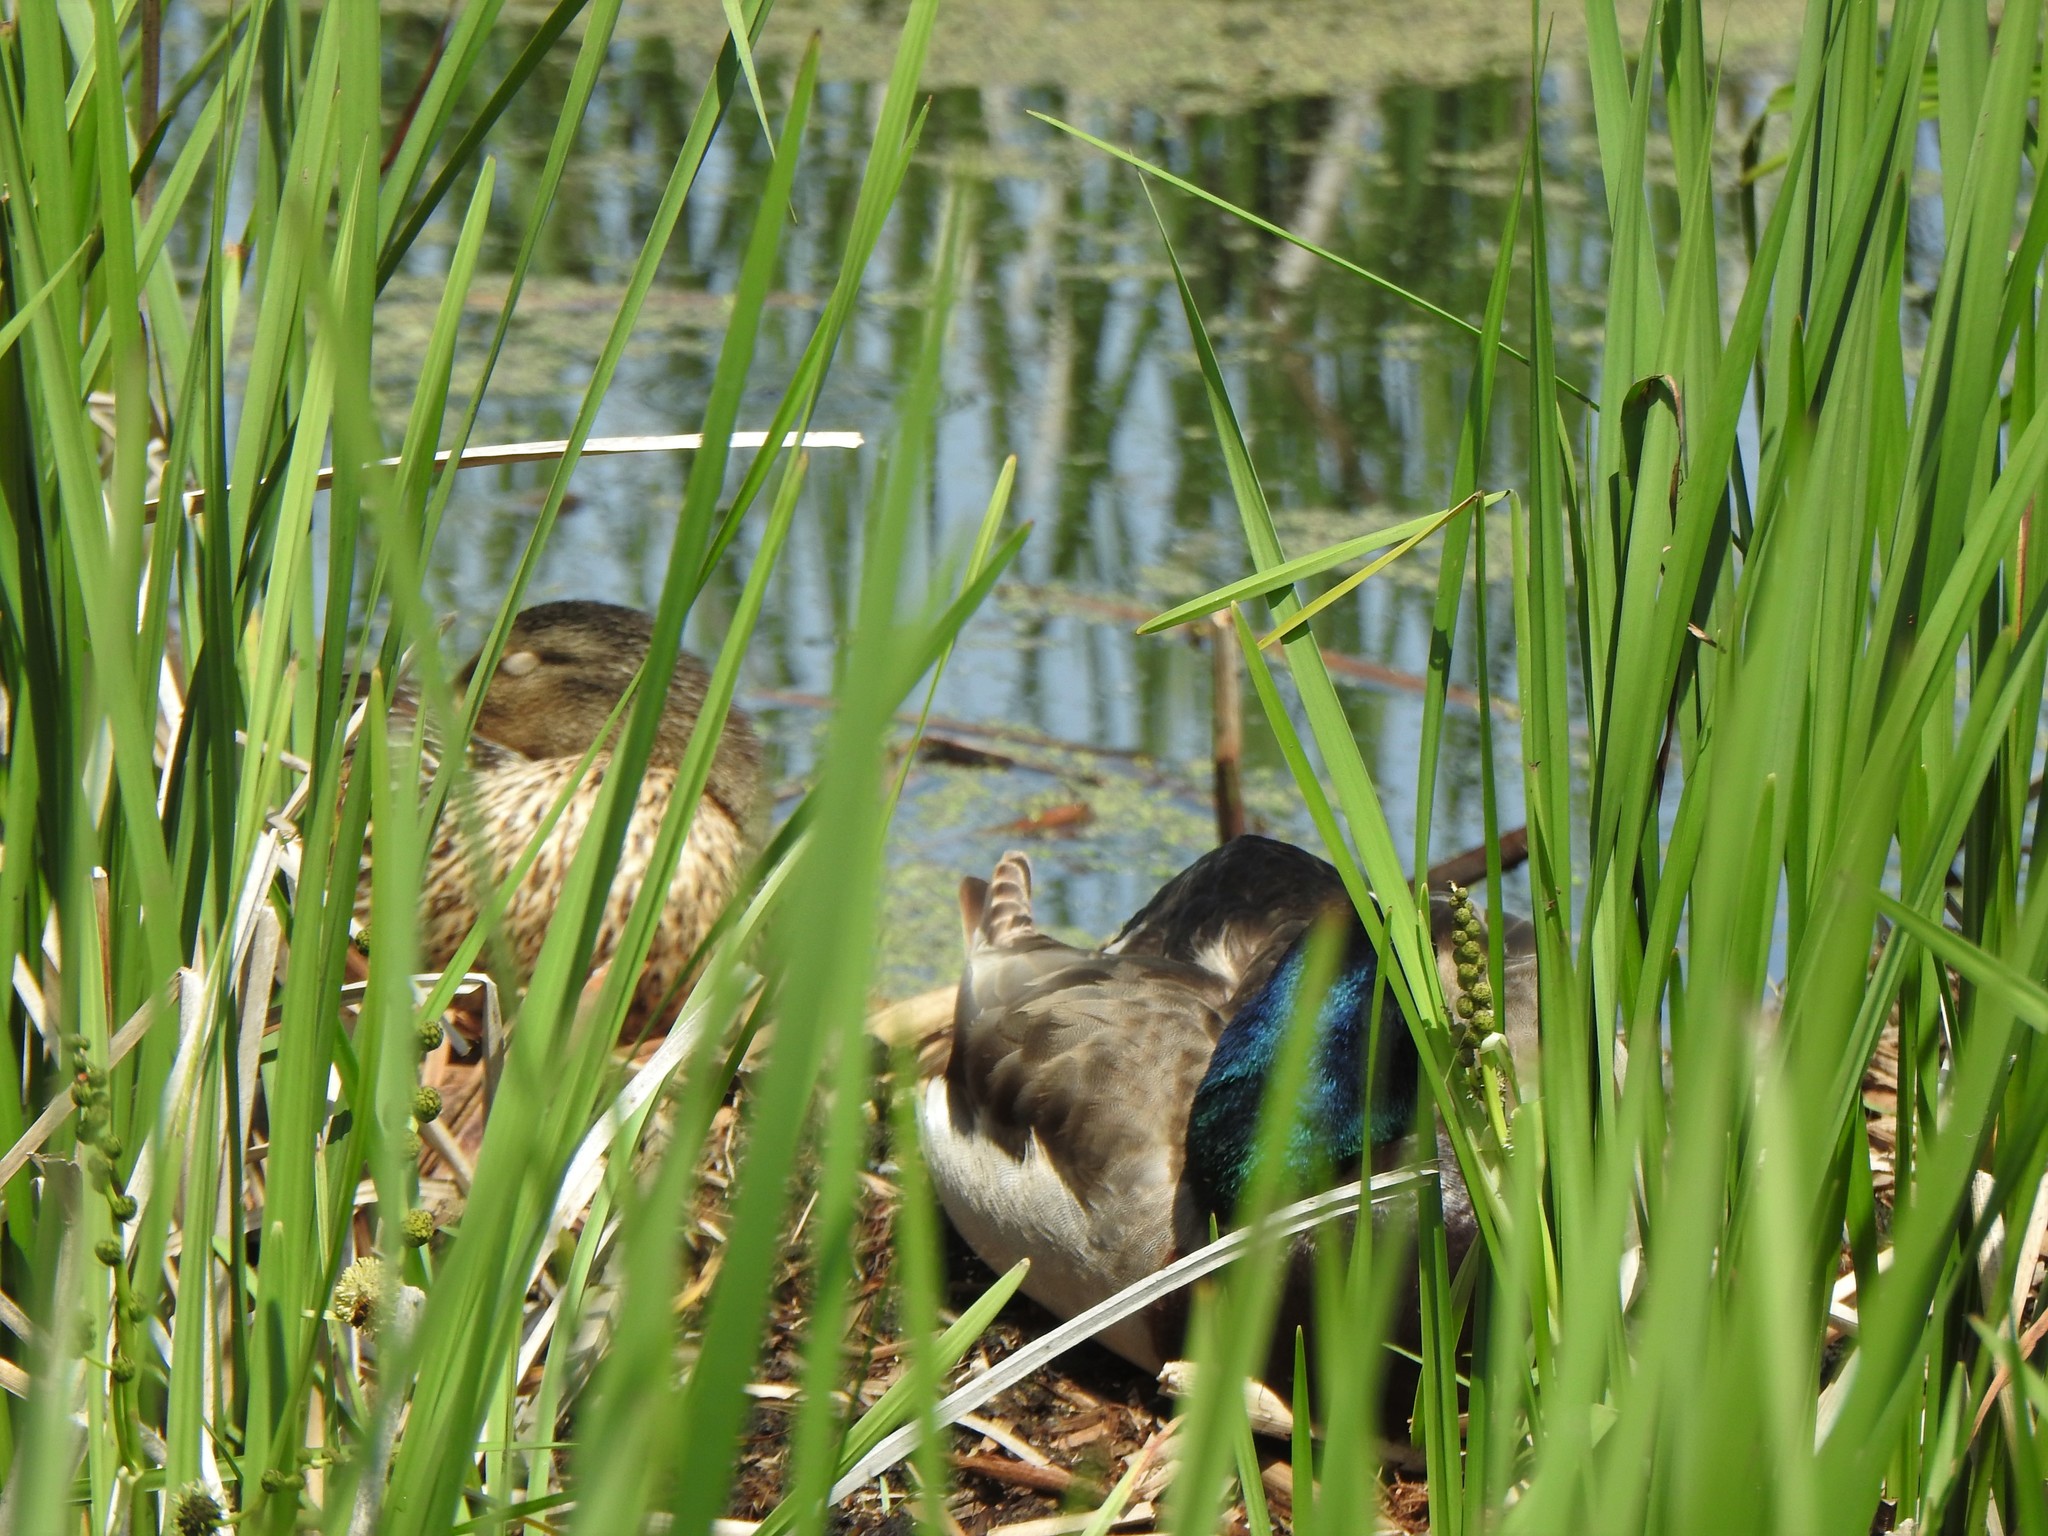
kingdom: Animalia
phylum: Chordata
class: Aves
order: Anseriformes
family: Anatidae
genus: Anas
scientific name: Anas platyrhynchos
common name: Mallard
